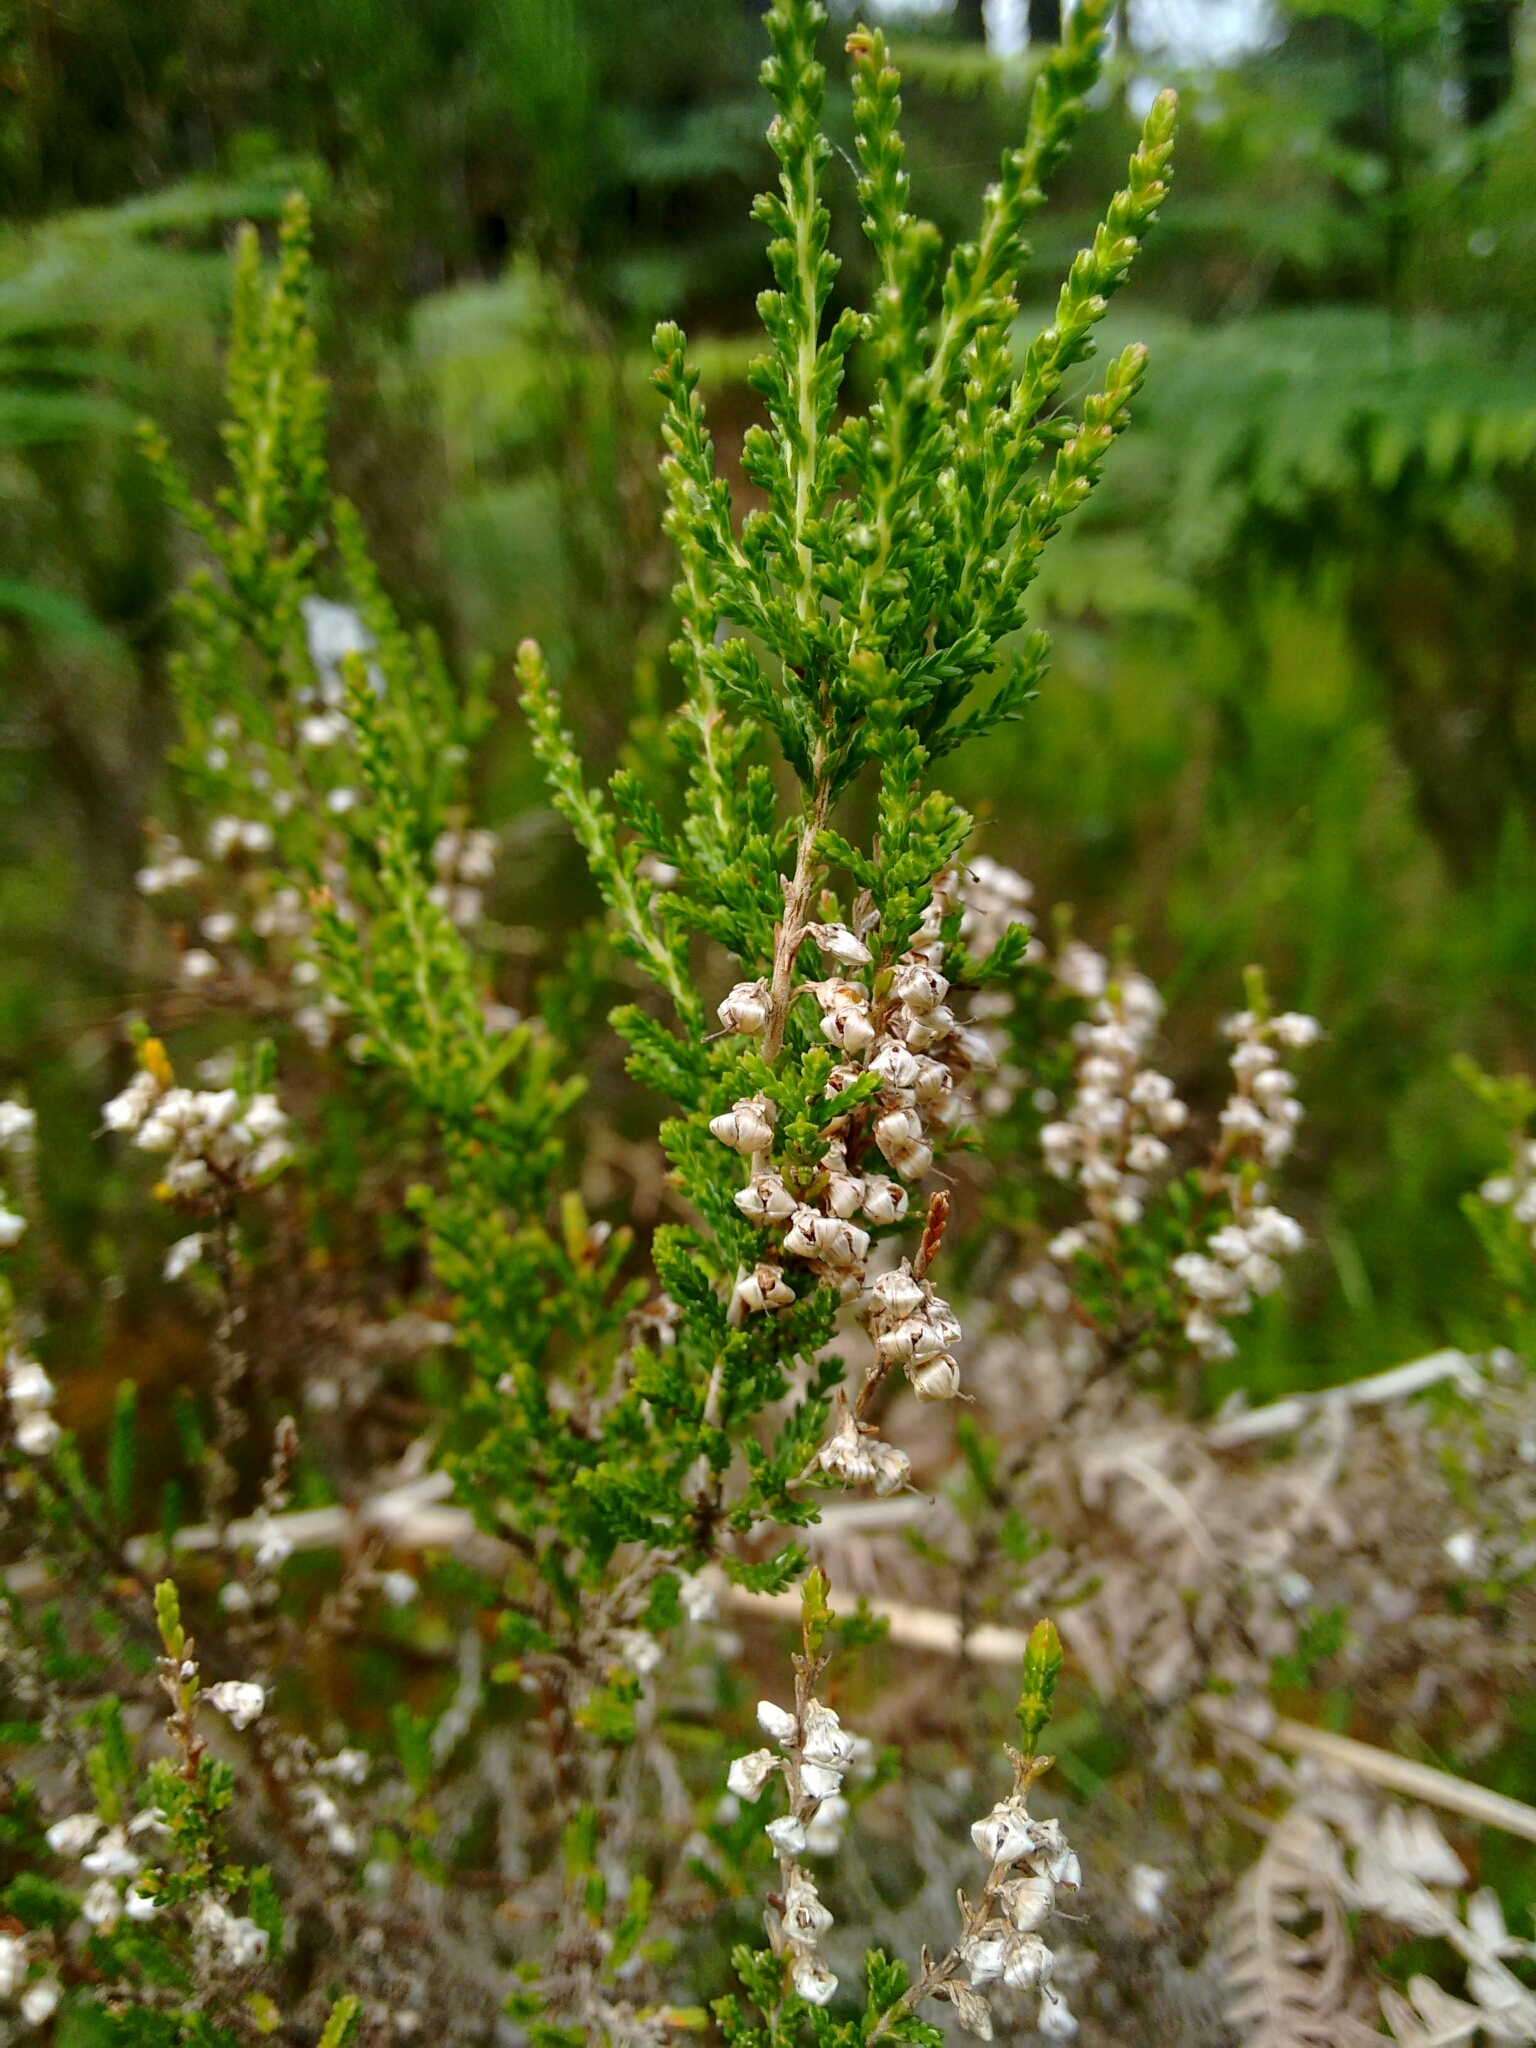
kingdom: Plantae
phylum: Tracheophyta
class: Magnoliopsida
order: Ericales
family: Ericaceae
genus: Calluna
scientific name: Calluna vulgaris
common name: Heather
